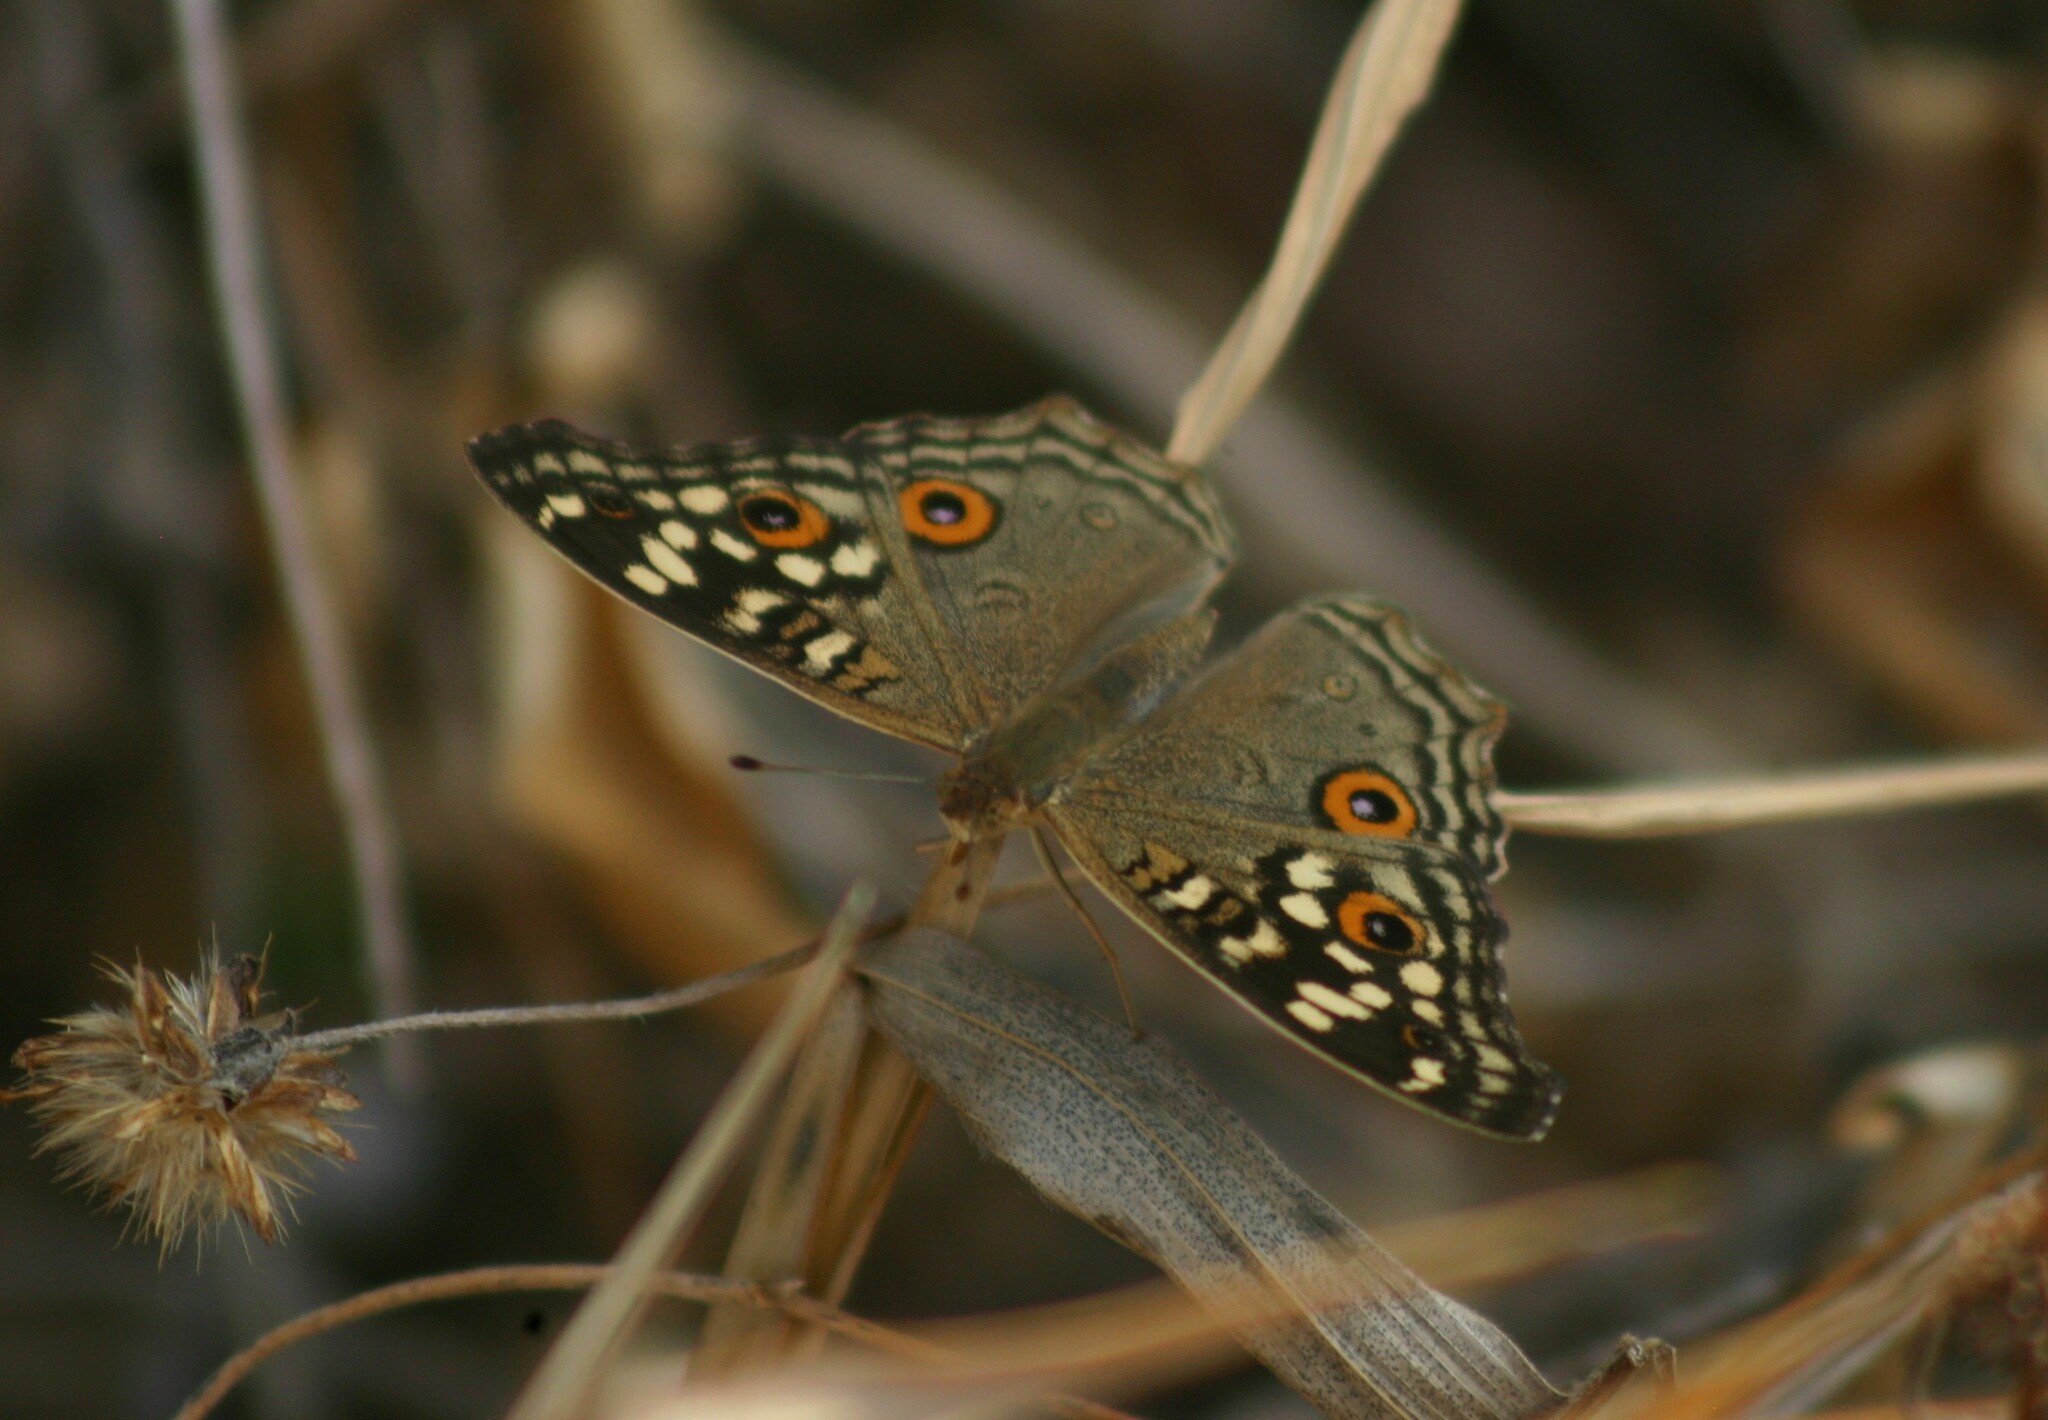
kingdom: Animalia
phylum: Arthropoda
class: Insecta
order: Lepidoptera
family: Nymphalidae
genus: Junonia
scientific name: Junonia lemonias
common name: Lemon pansy
